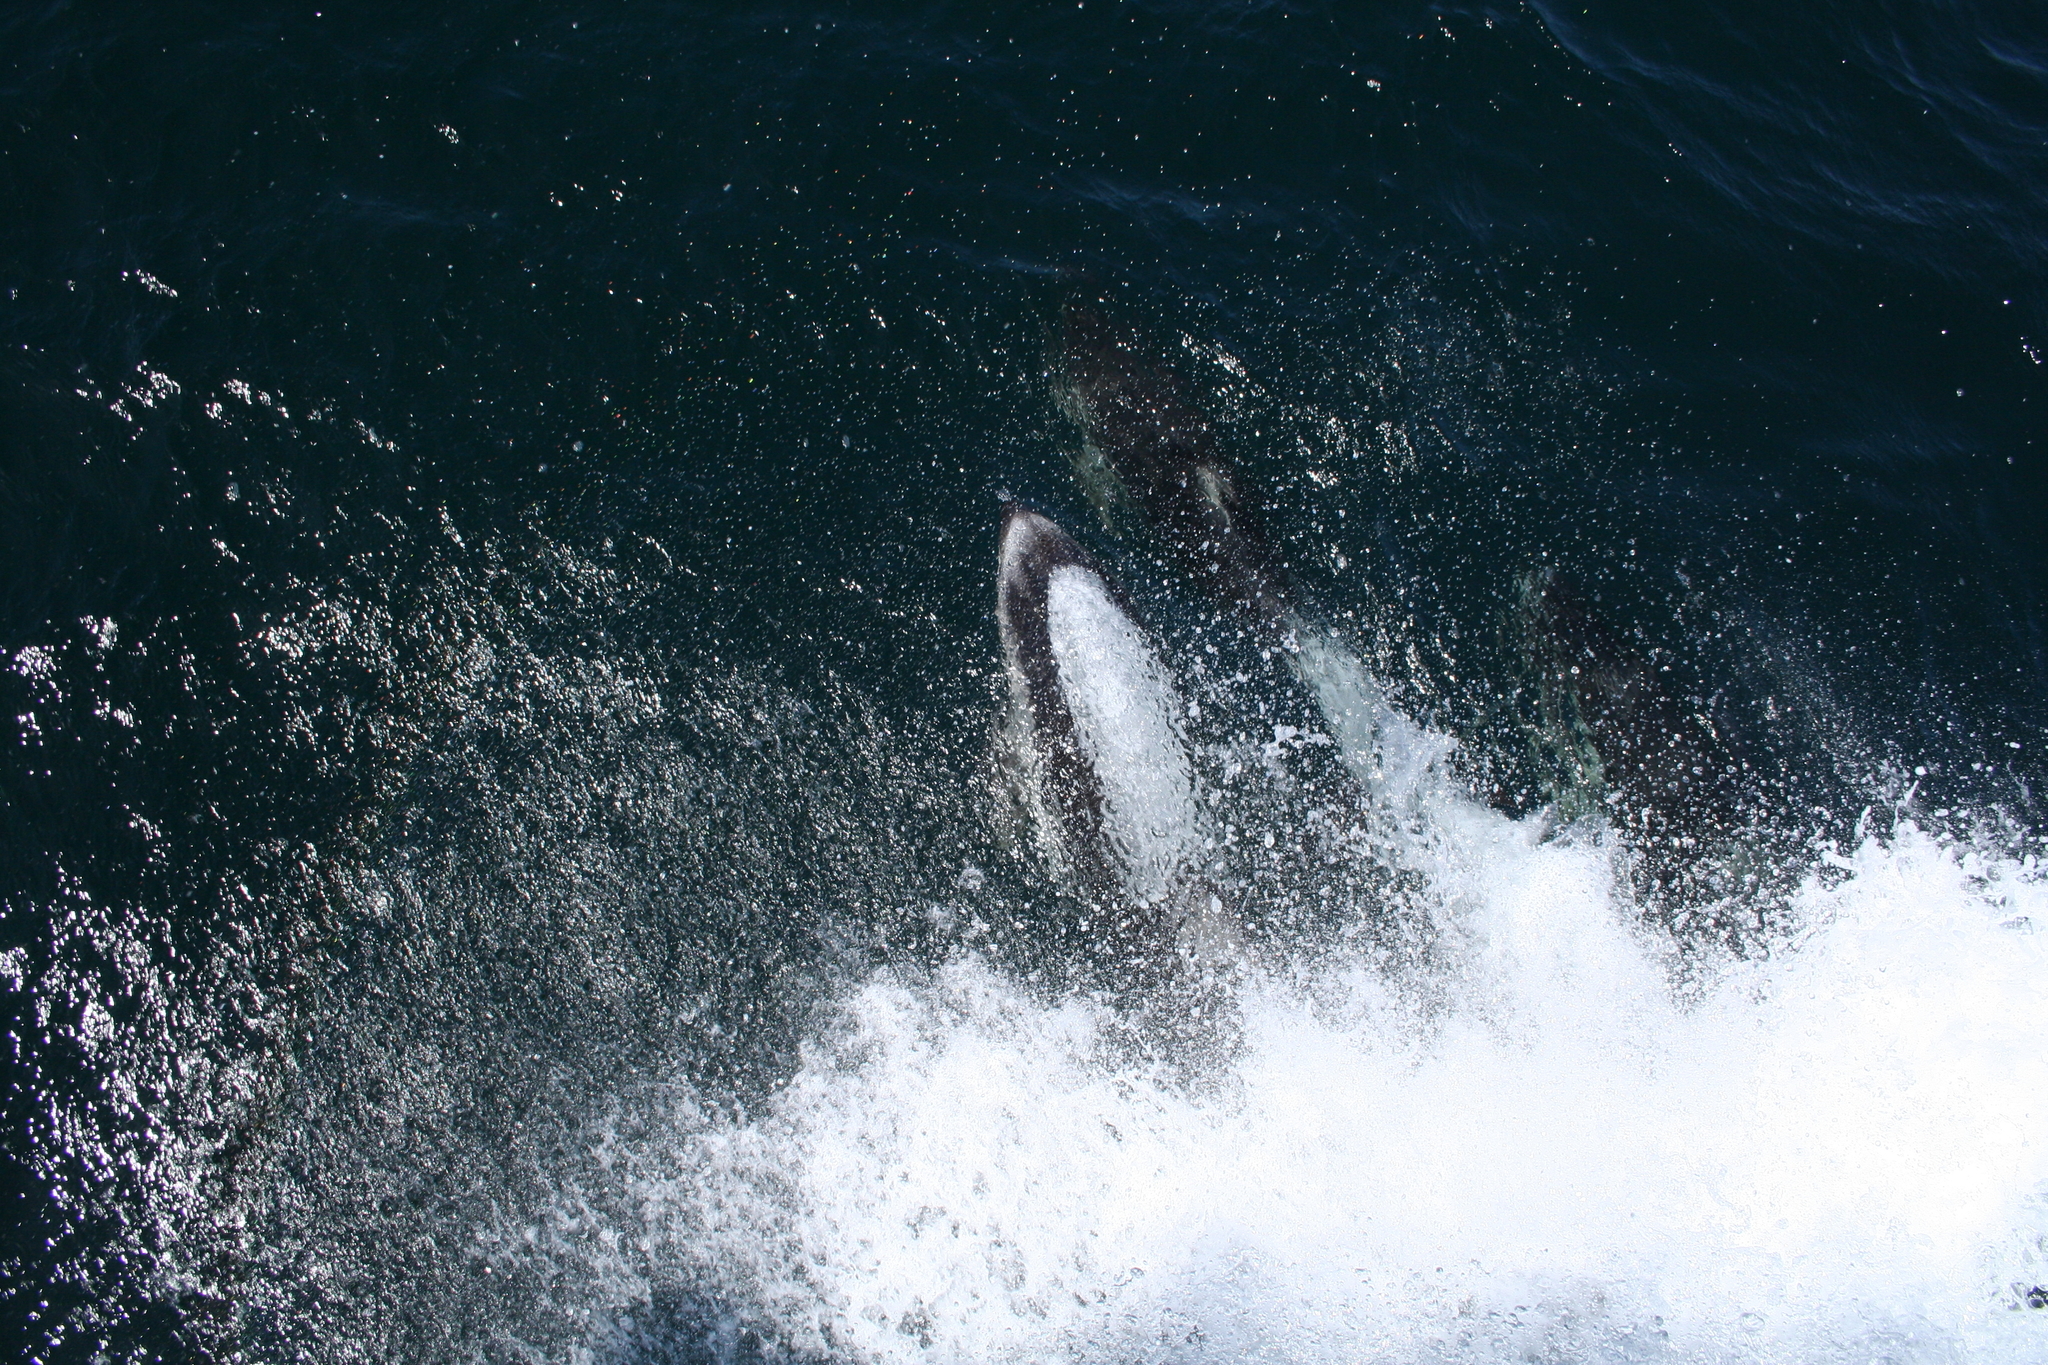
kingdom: Animalia
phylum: Chordata
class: Mammalia
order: Cetacea
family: Delphinidae
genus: Lagenorhynchus
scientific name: Lagenorhynchus obliquidens
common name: Pacific white-sided dolphin
